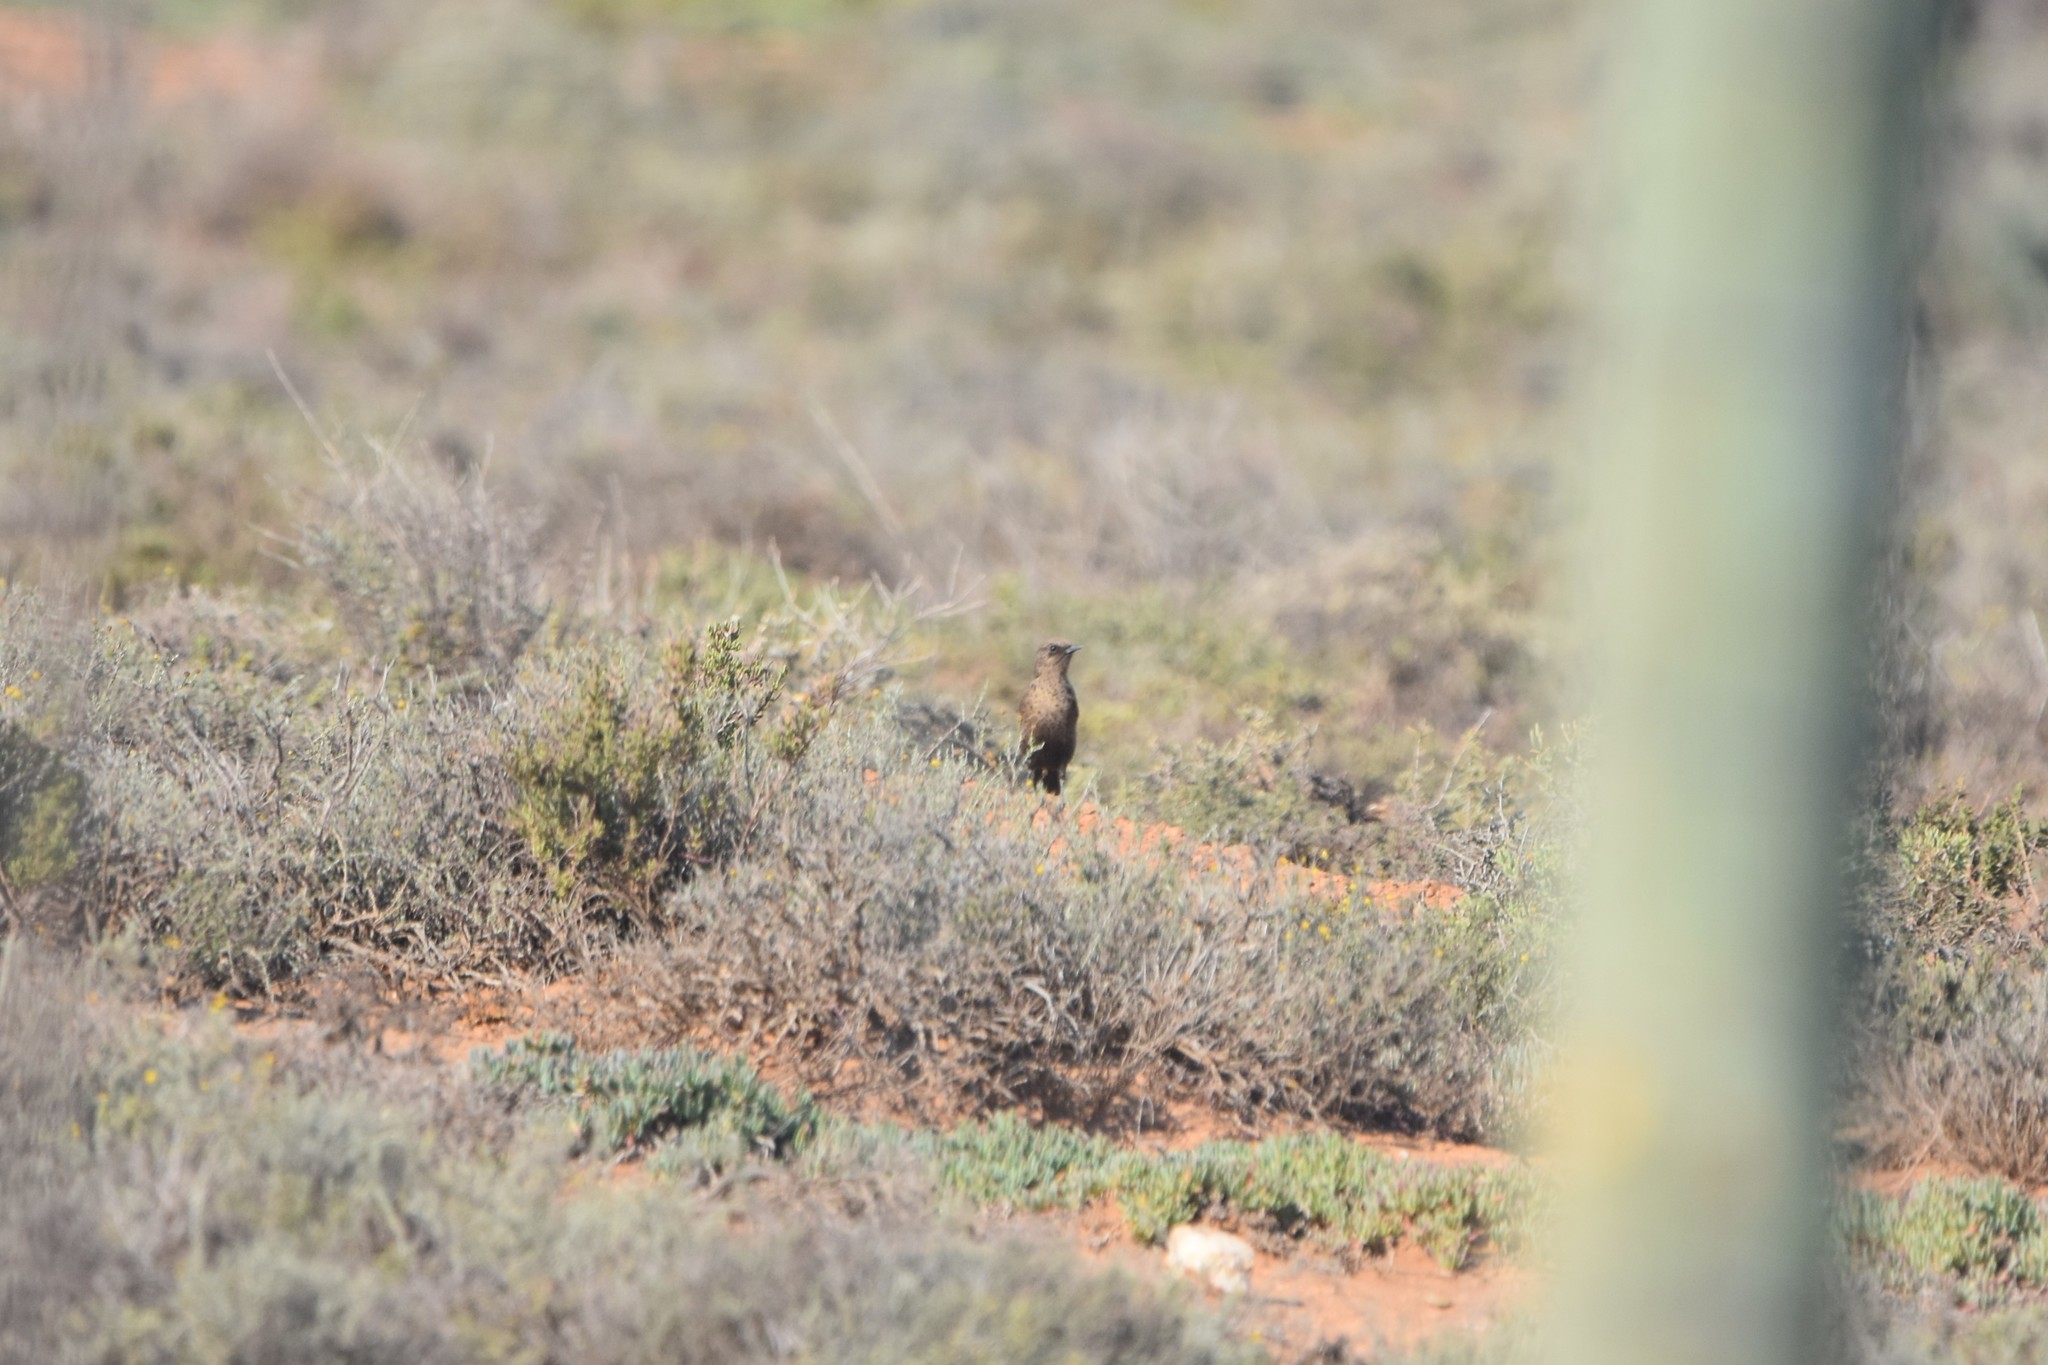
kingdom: Animalia
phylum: Chordata
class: Aves
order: Passeriformes
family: Muscicapidae
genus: Myrmecocichla
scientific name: Myrmecocichla formicivora
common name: Ant-eating chat
